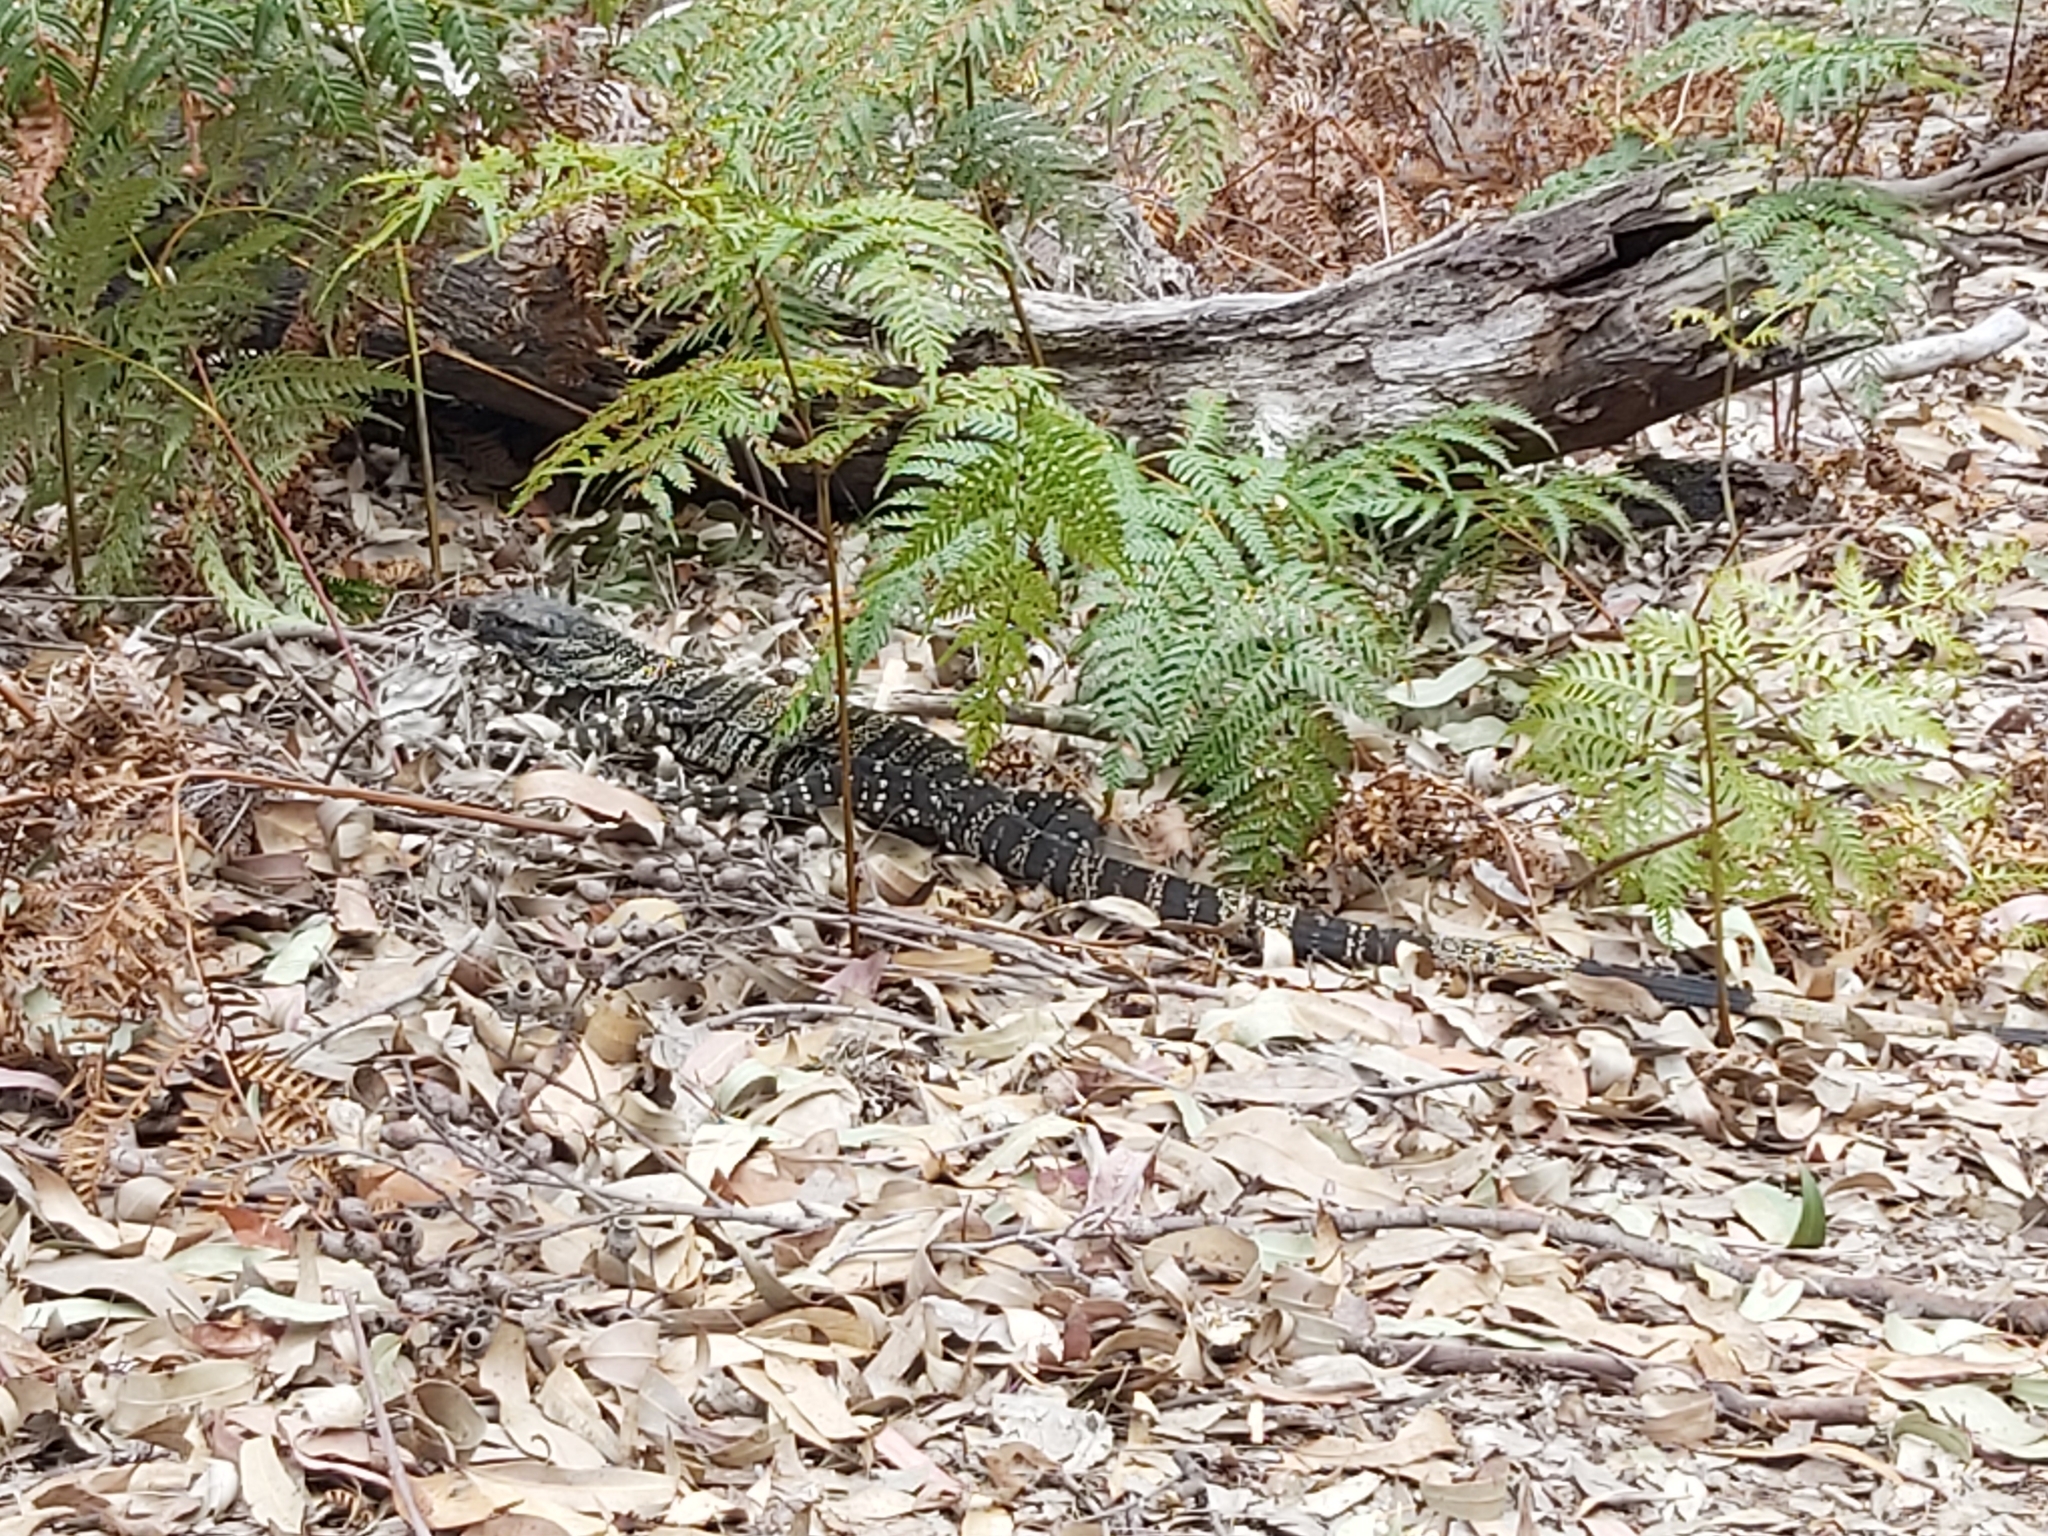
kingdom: Animalia
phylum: Chordata
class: Squamata
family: Varanidae
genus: Varanus
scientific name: Varanus varius
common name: Lace monitor
